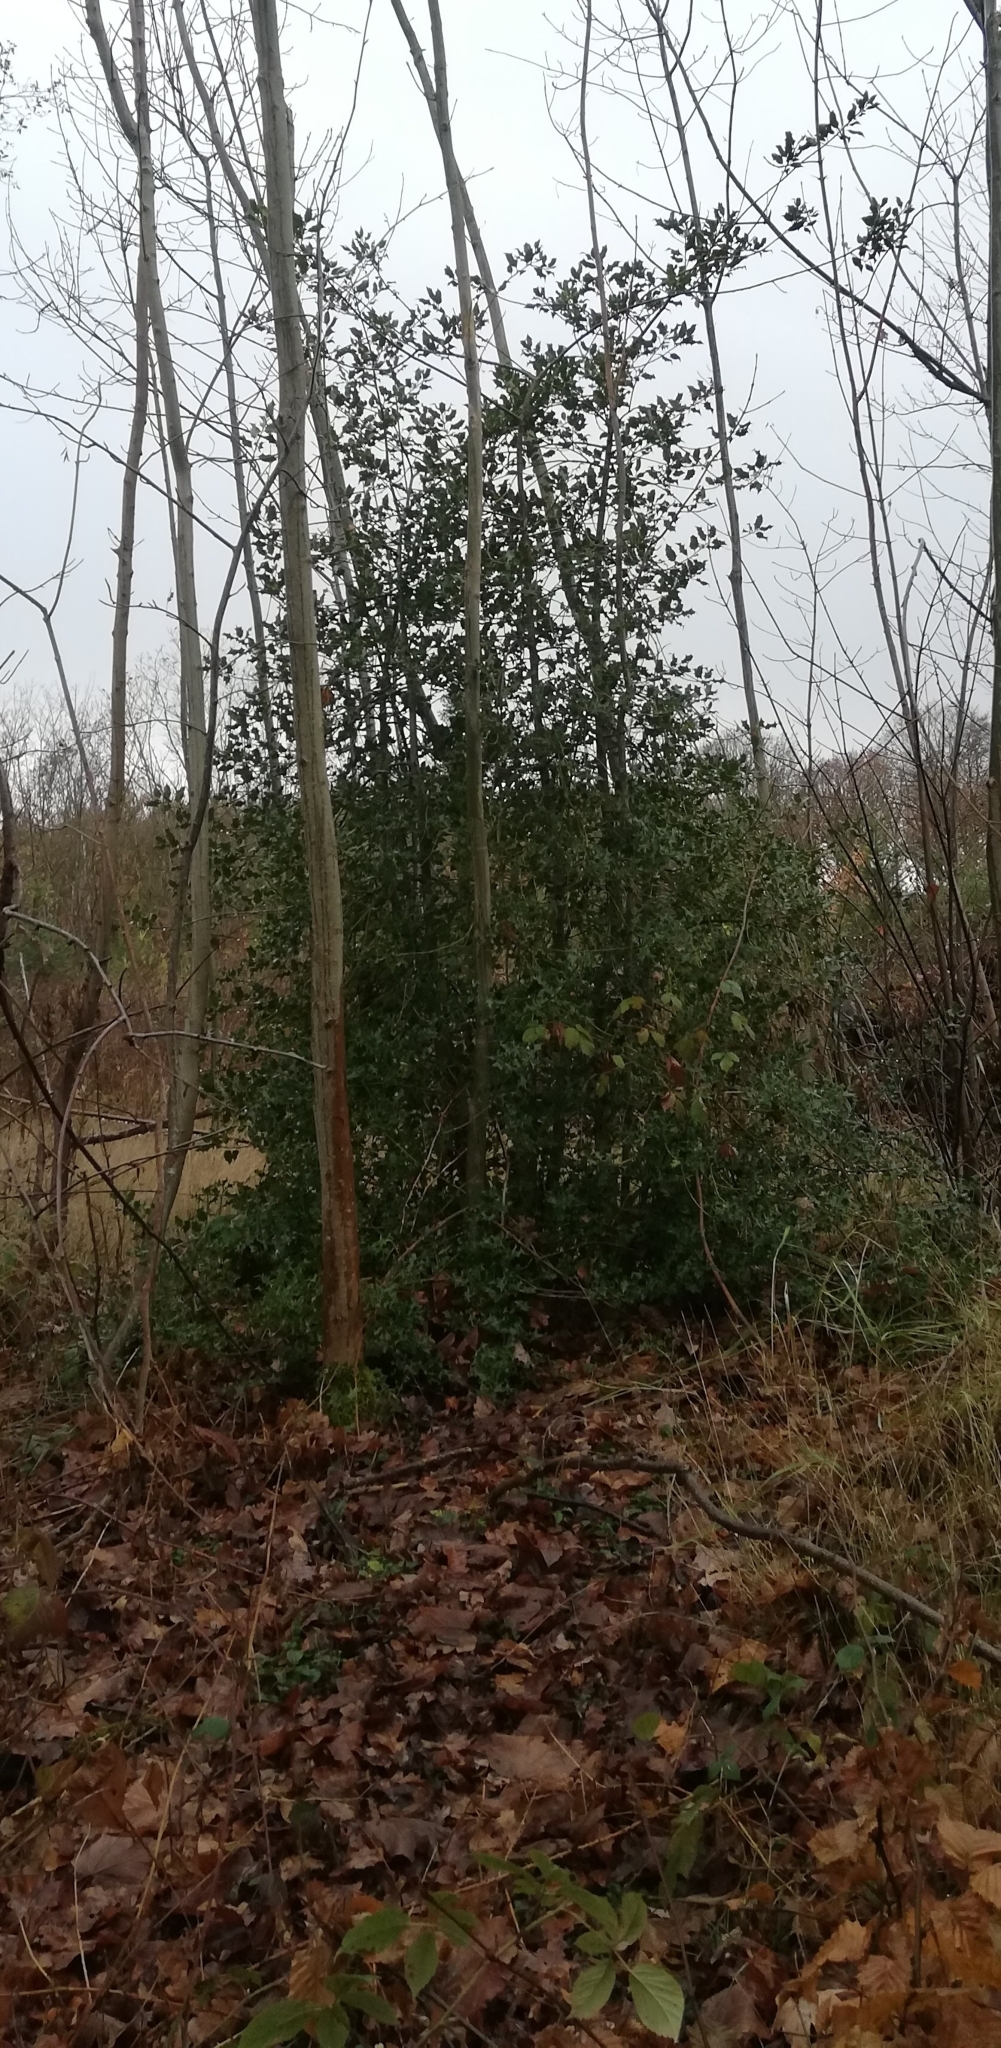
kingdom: Plantae
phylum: Tracheophyta
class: Magnoliopsida
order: Aquifoliales
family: Aquifoliaceae
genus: Ilex
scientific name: Ilex aquifolium
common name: English holly
